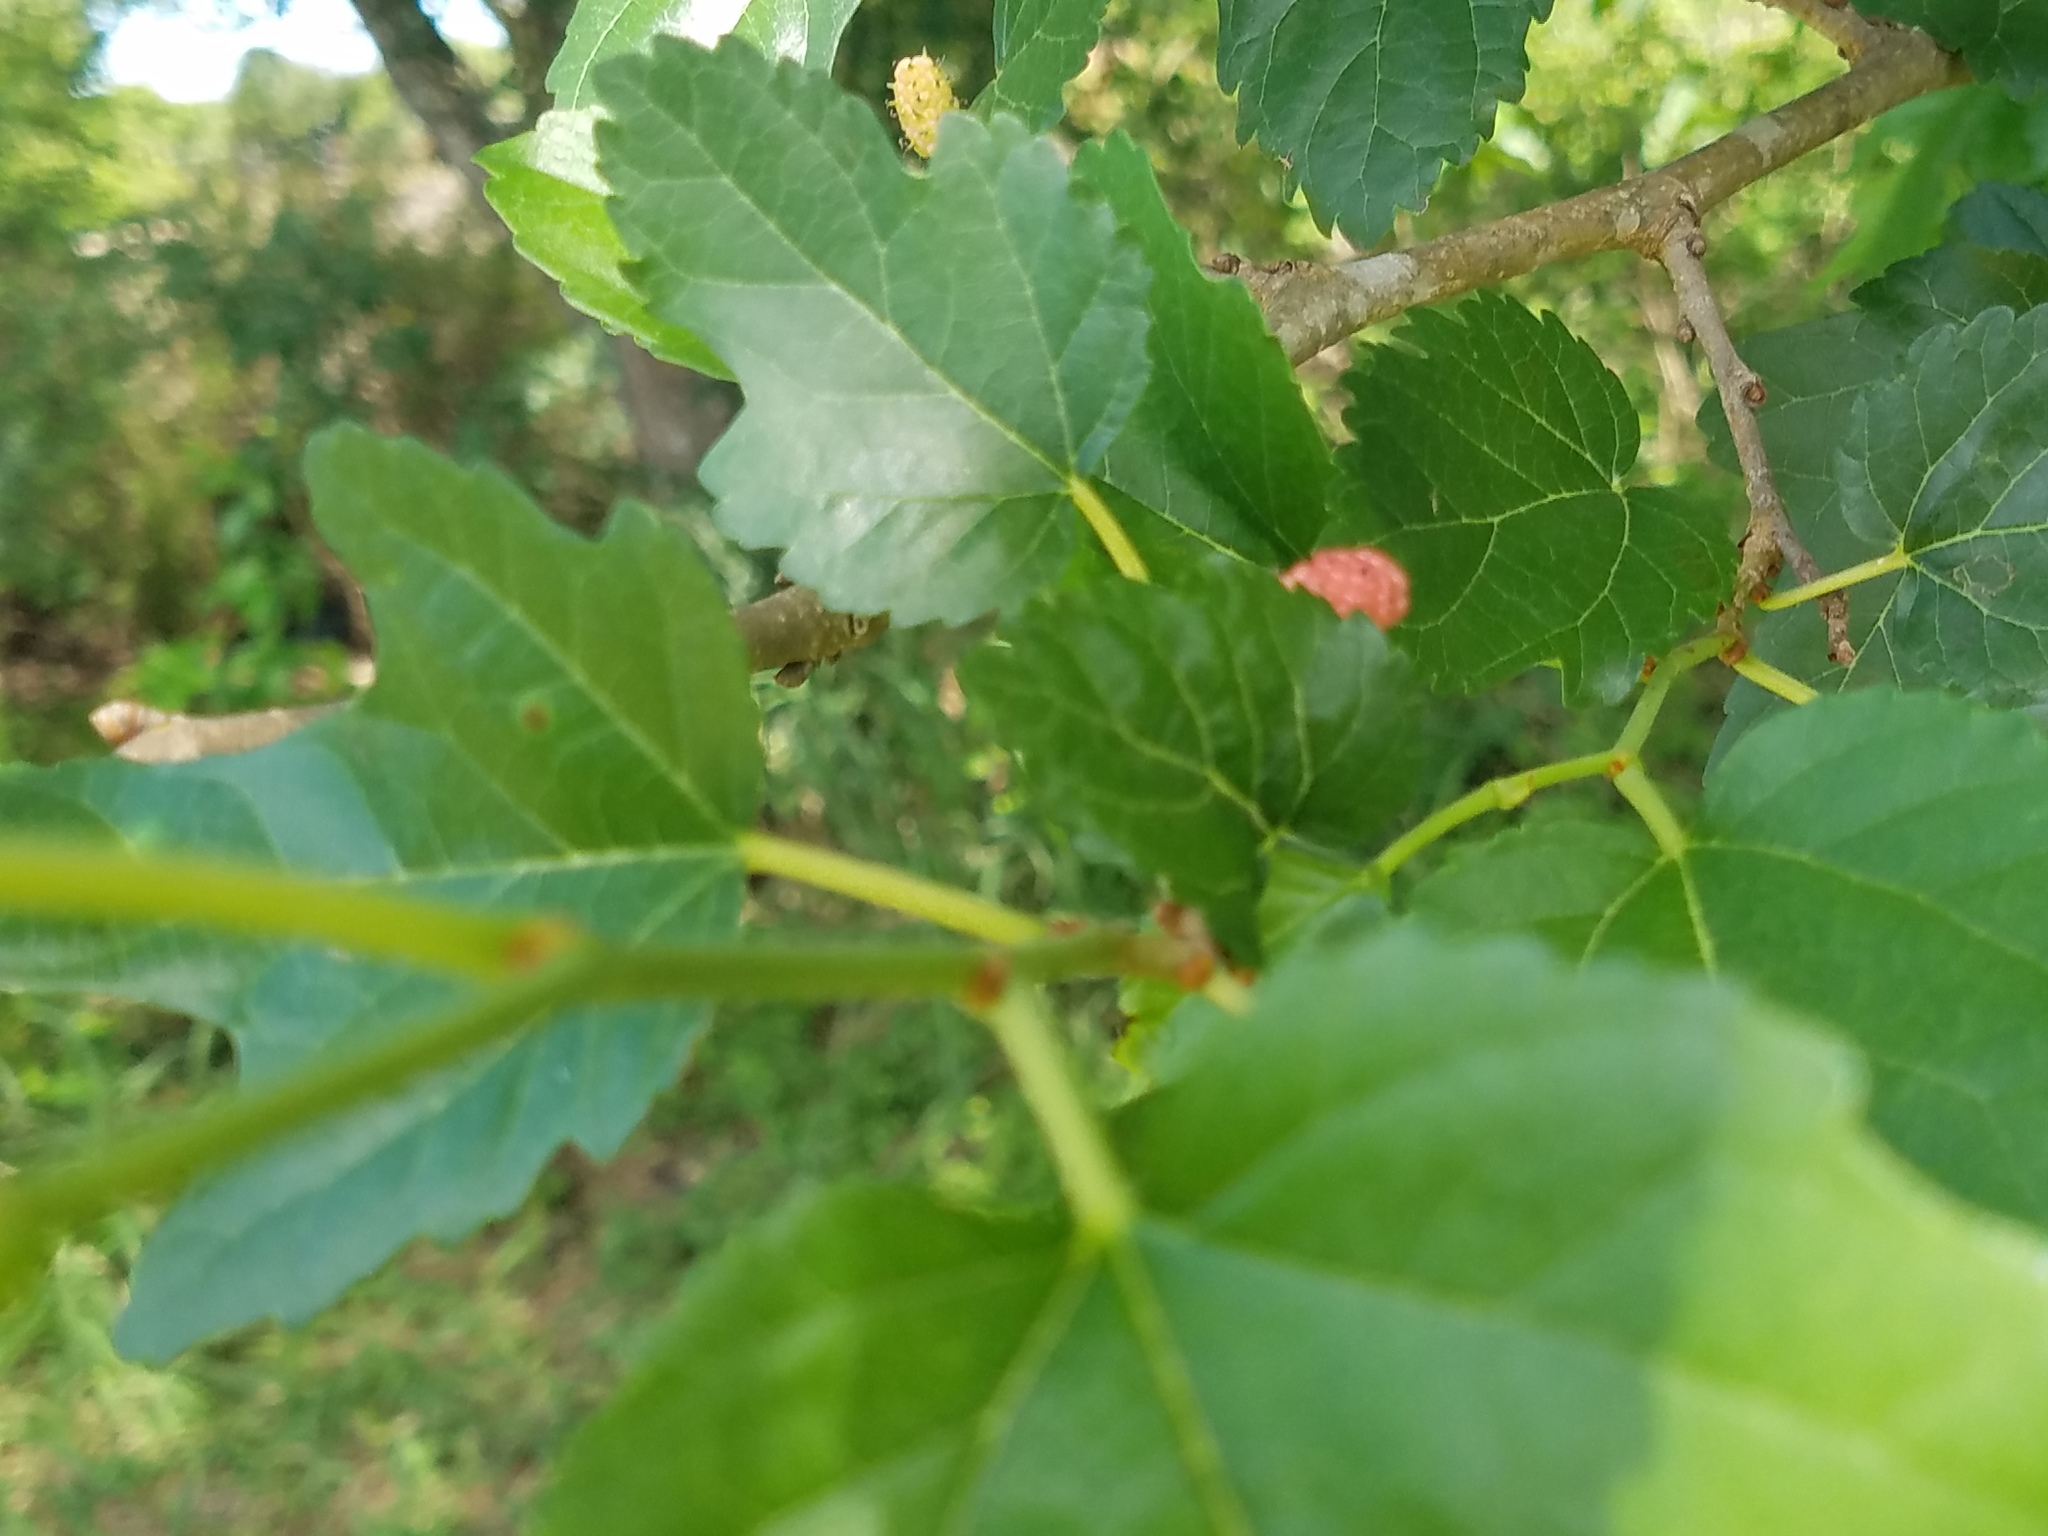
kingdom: Plantae
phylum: Tracheophyta
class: Magnoliopsida
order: Rosales
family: Moraceae
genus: Morus
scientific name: Morus alba
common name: White mulberry
